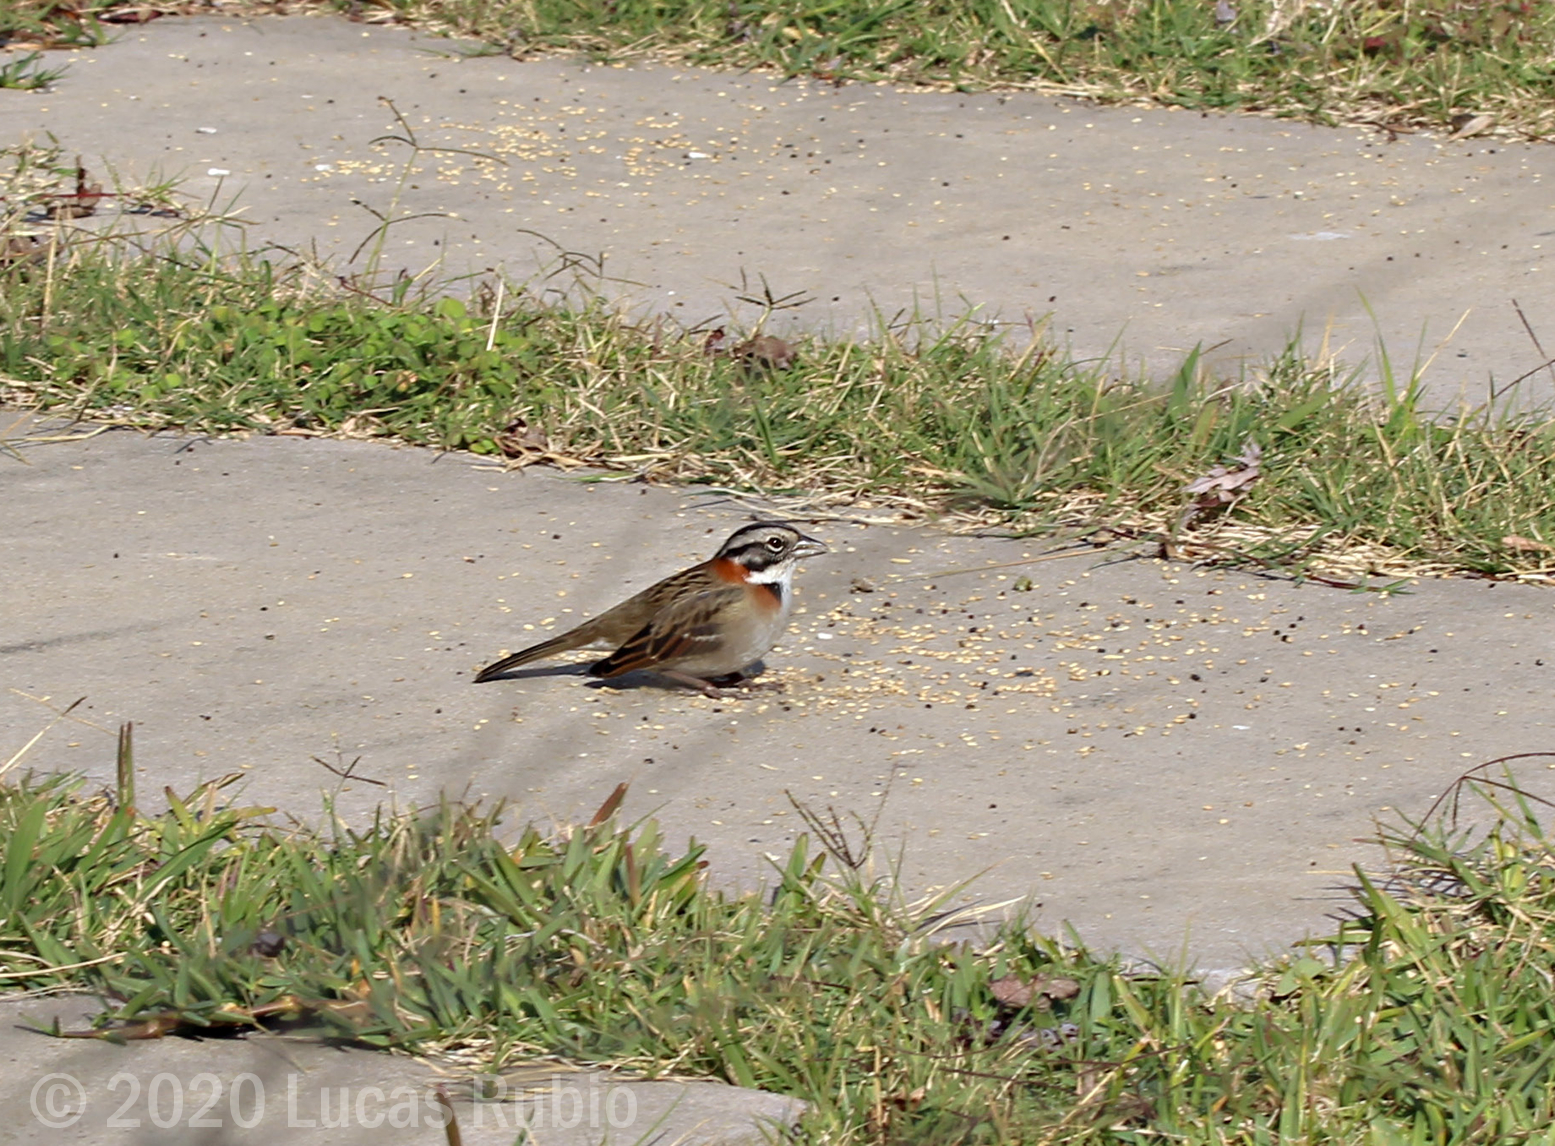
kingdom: Animalia
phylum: Chordata
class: Aves
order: Passeriformes
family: Passerellidae
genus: Zonotrichia
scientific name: Zonotrichia capensis
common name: Rufous-collared sparrow
